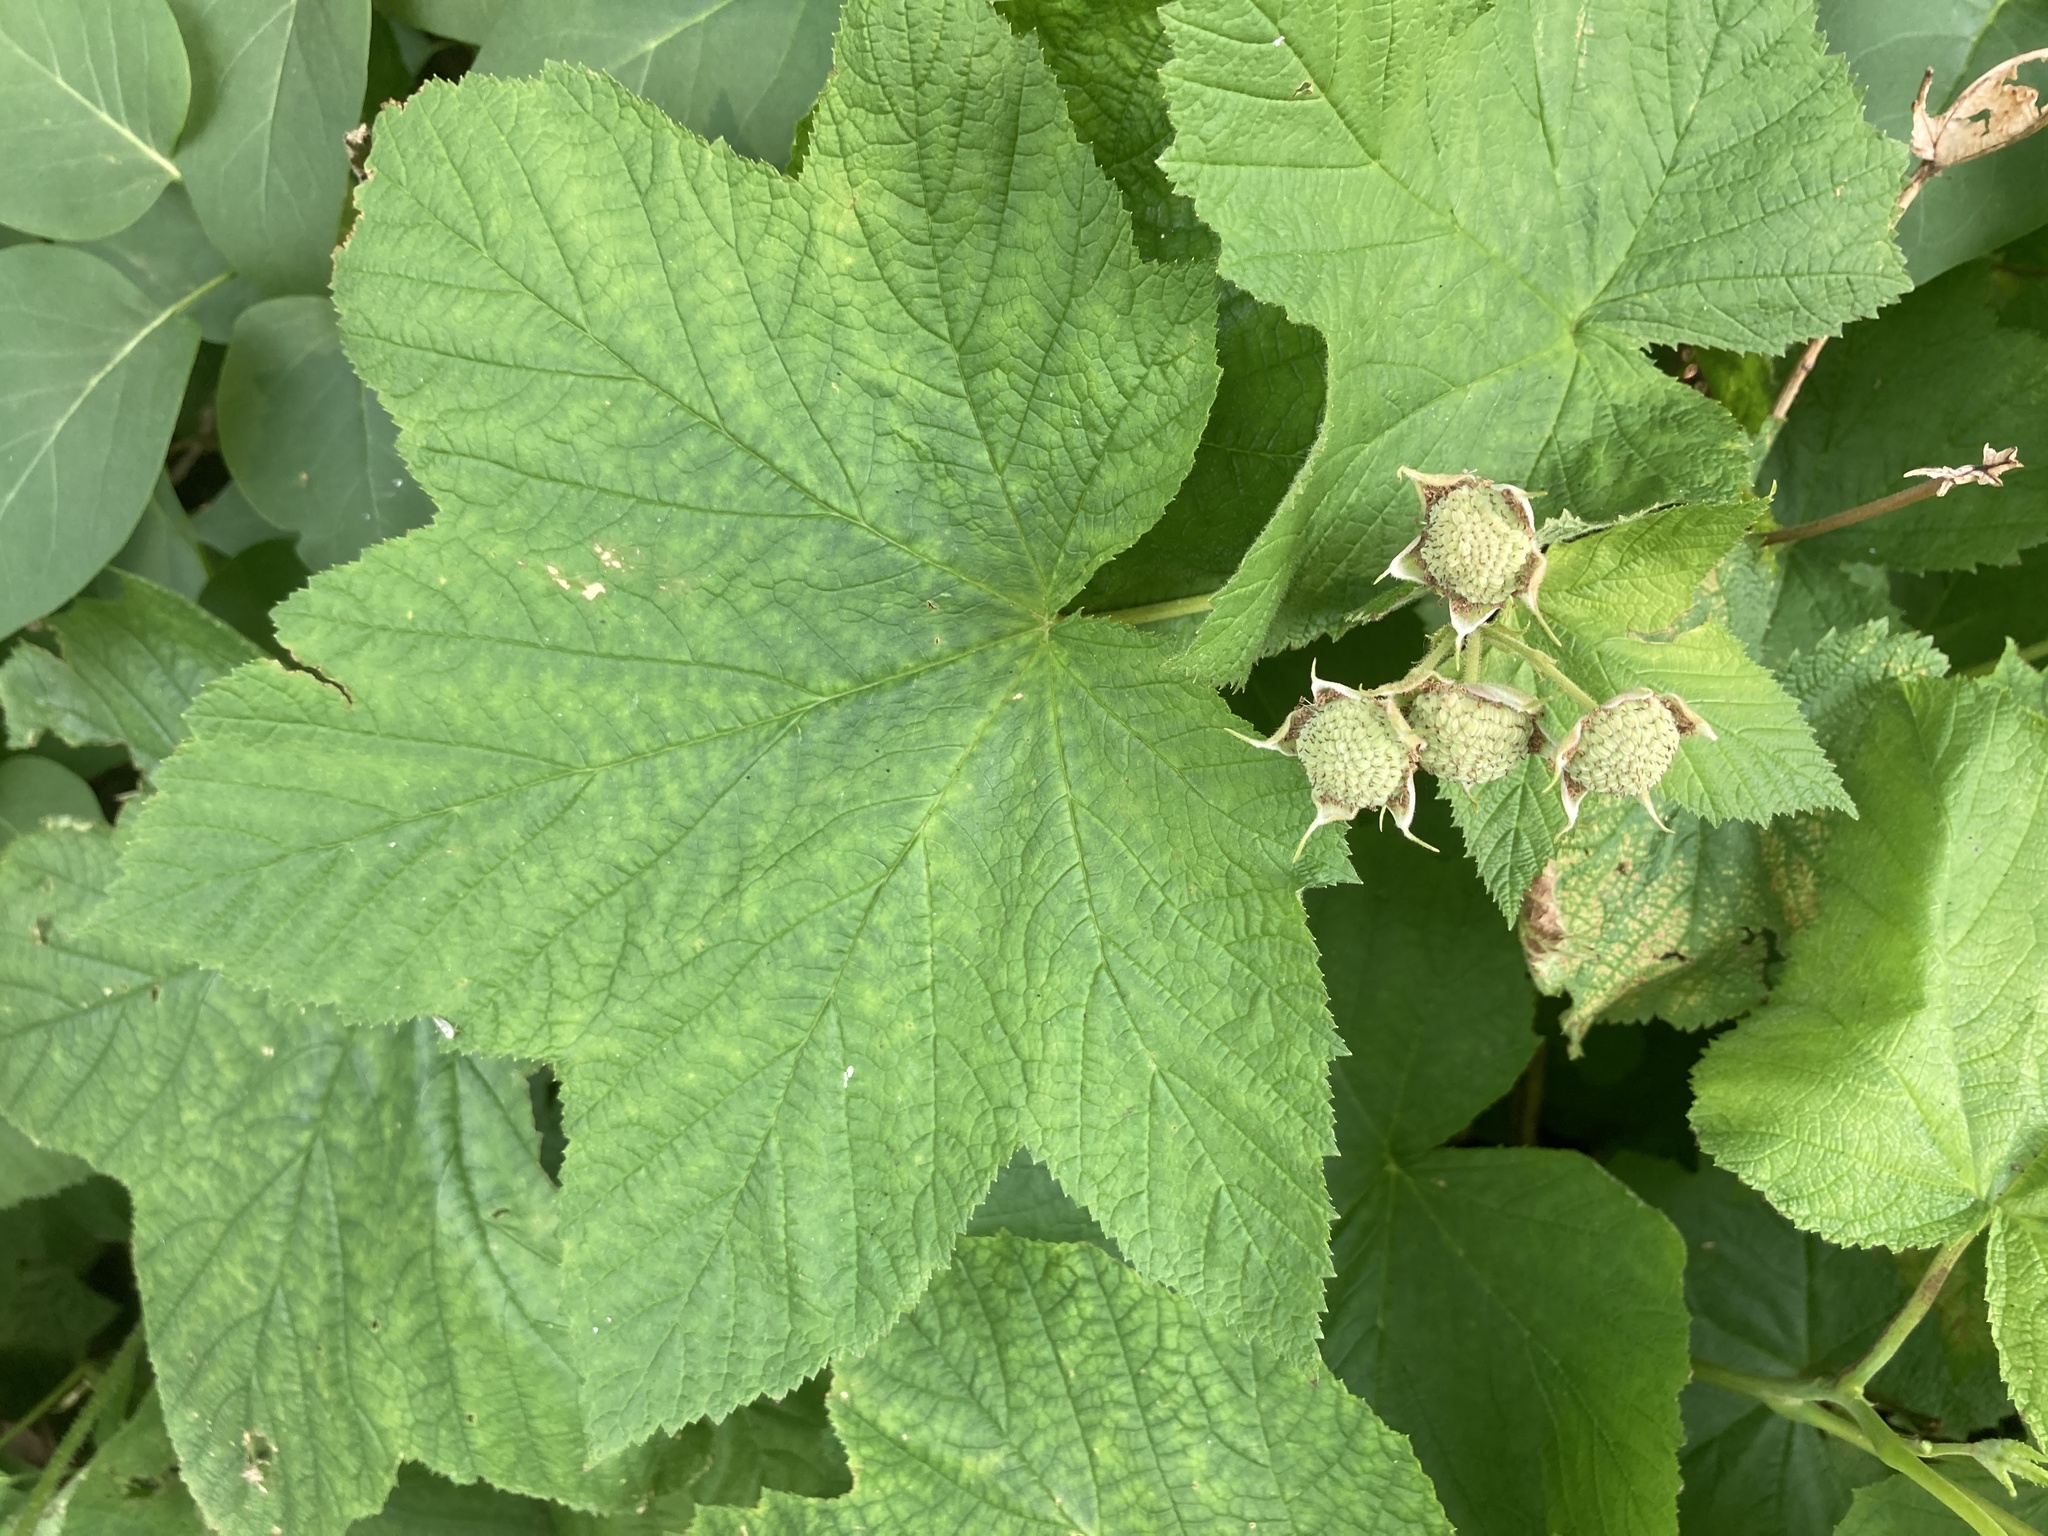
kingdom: Plantae
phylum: Tracheophyta
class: Magnoliopsida
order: Rosales
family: Rosaceae
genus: Rubus
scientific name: Rubus parviflorus
